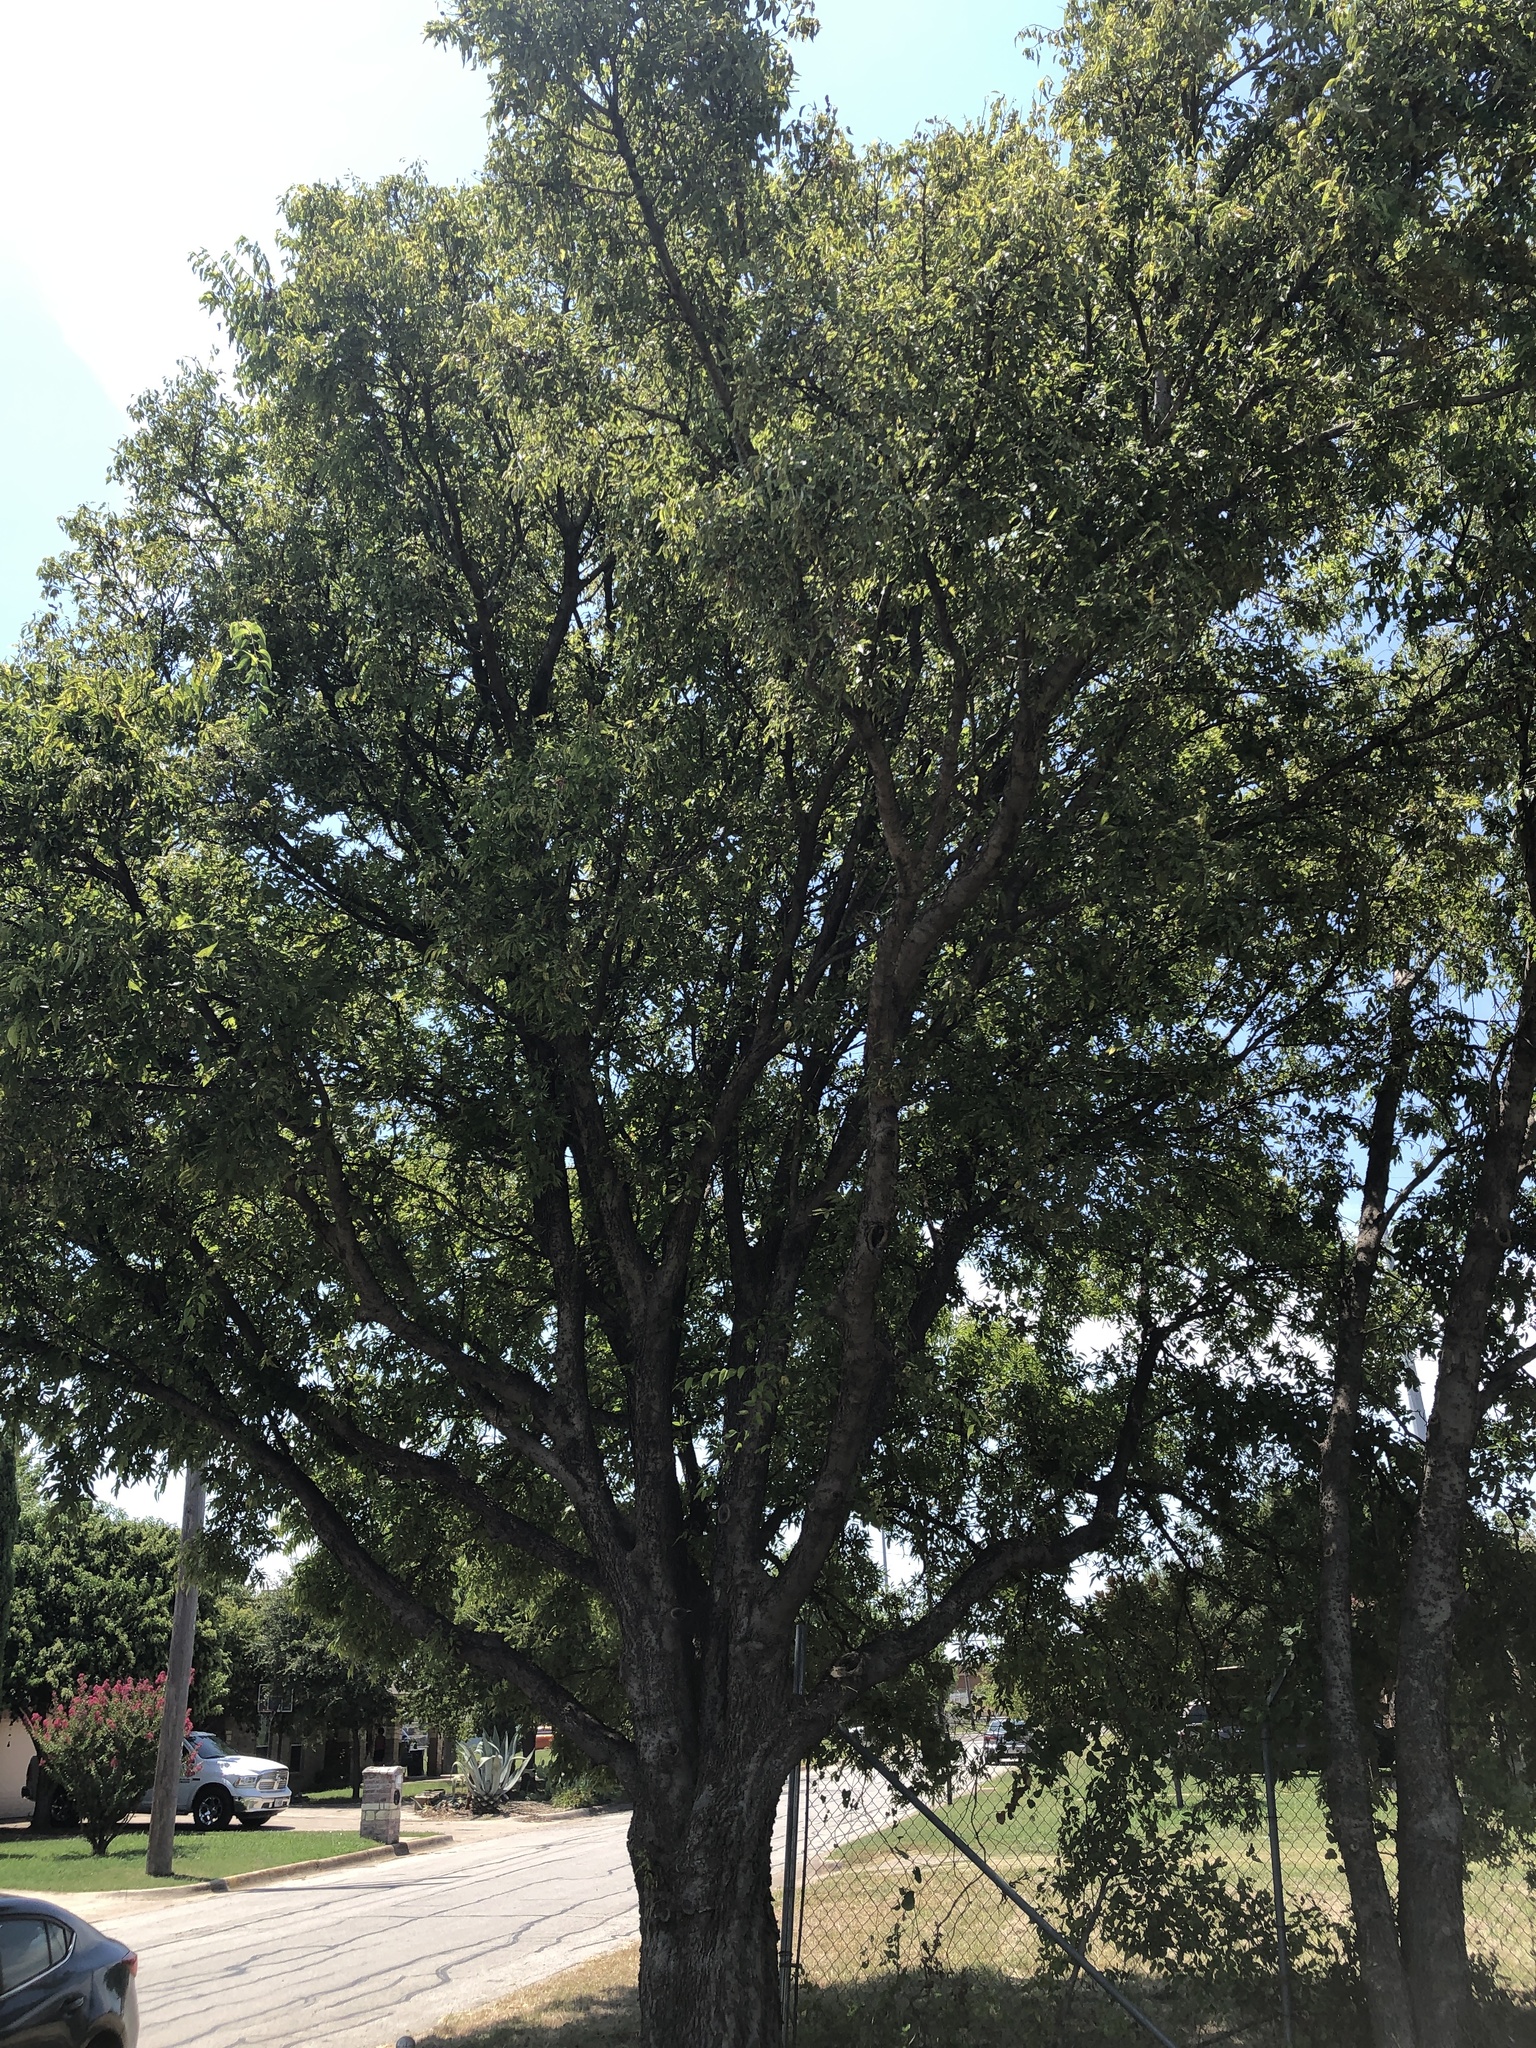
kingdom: Plantae
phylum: Tracheophyta
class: Magnoliopsida
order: Rosales
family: Cannabaceae
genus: Celtis
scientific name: Celtis laevigata
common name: Sugarberry
